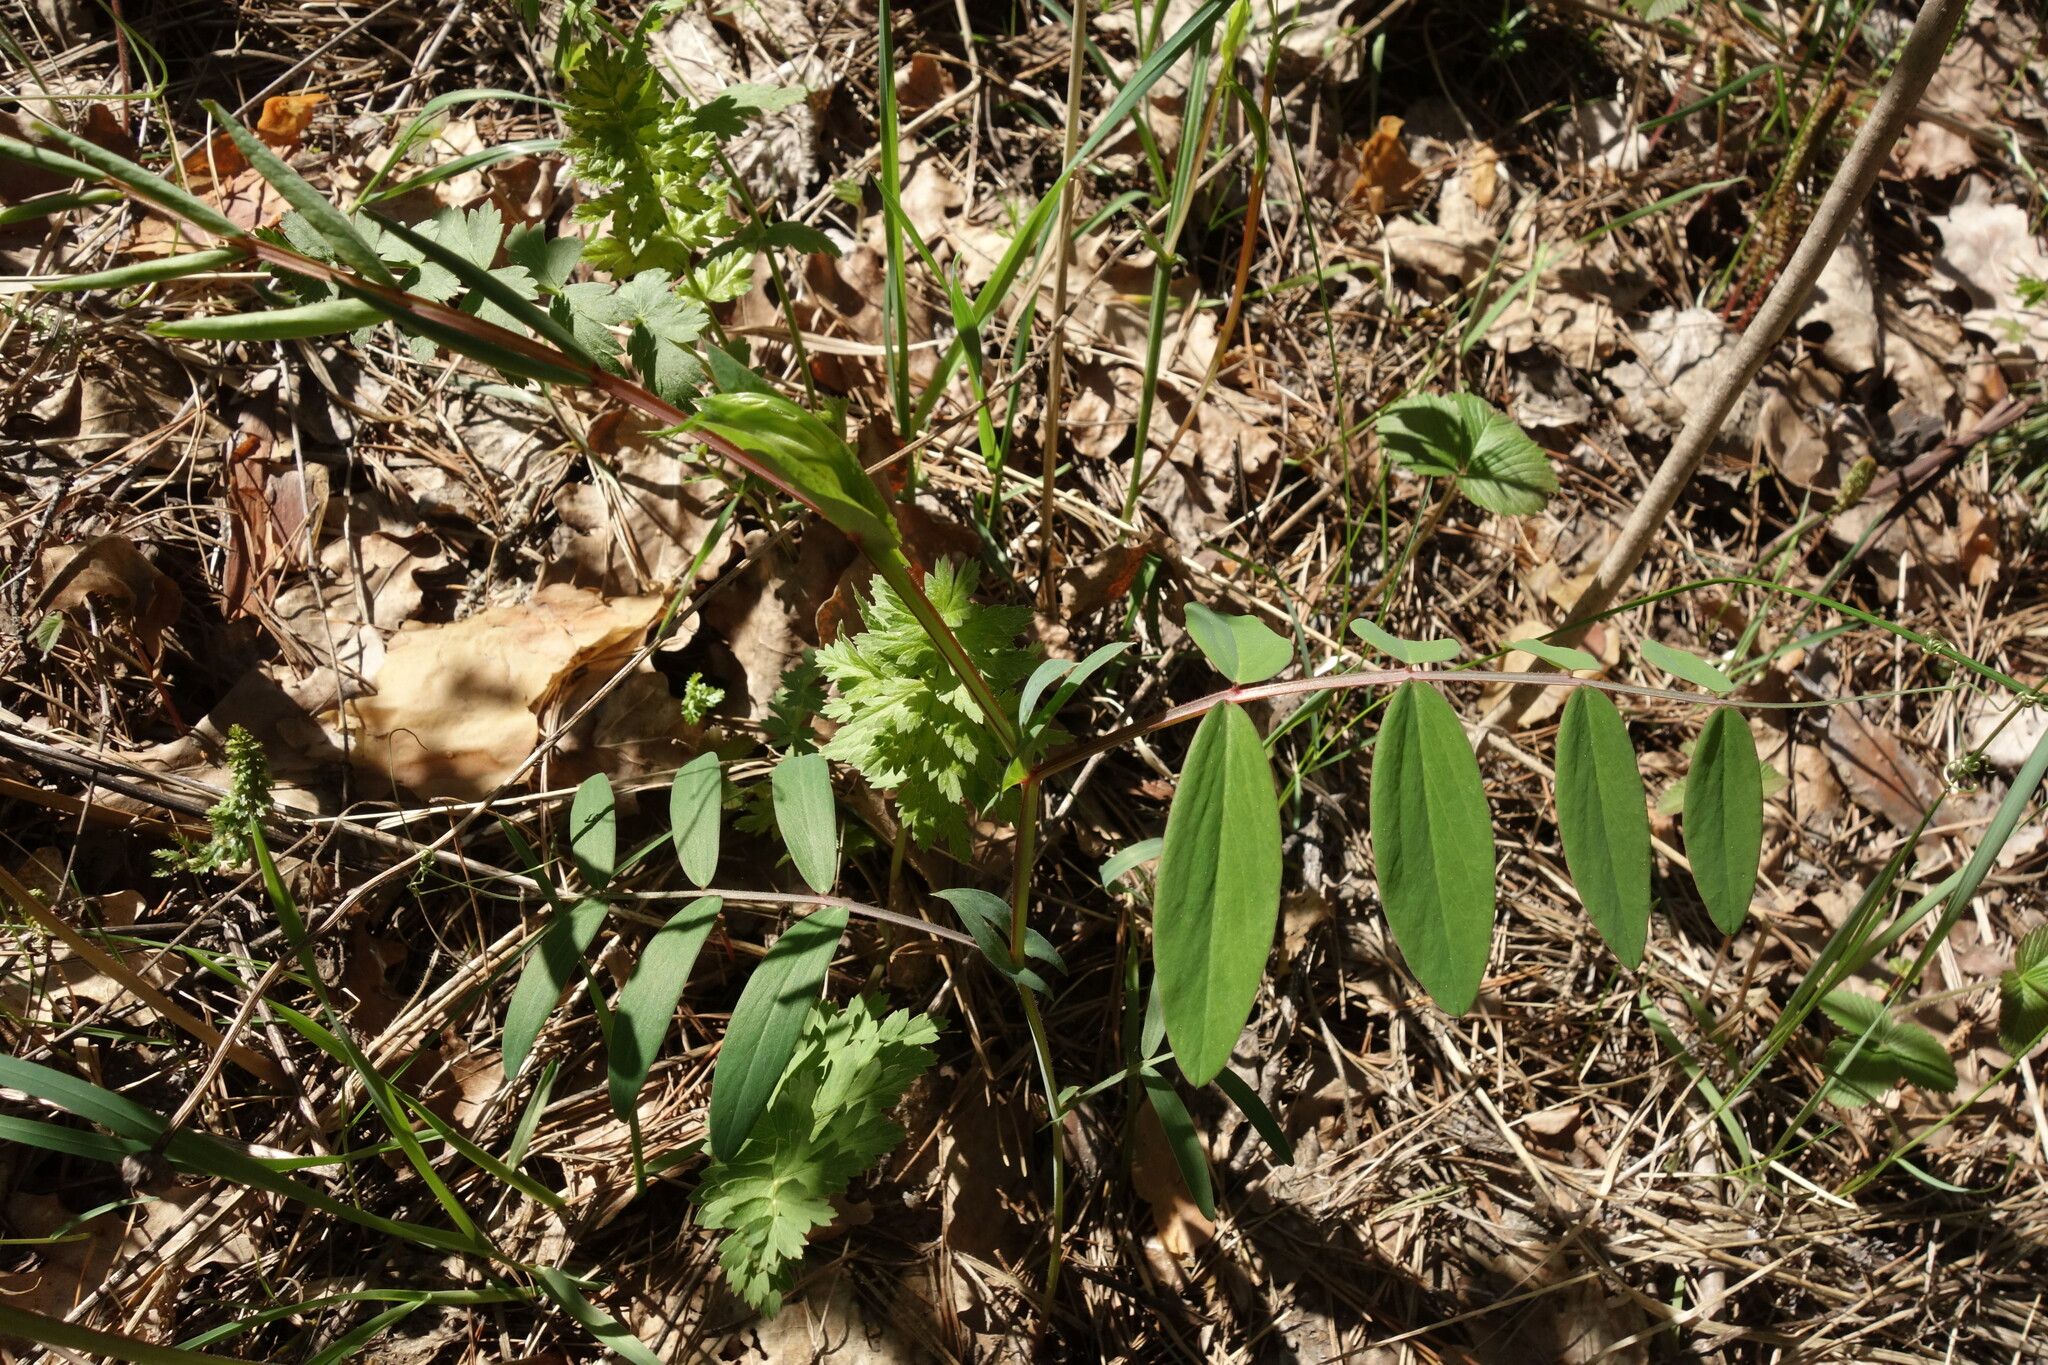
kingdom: Plantae
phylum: Tracheophyta
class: Magnoliopsida
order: Fabales
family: Fabaceae
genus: Lathyrus
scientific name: Lathyrus pisiformis
